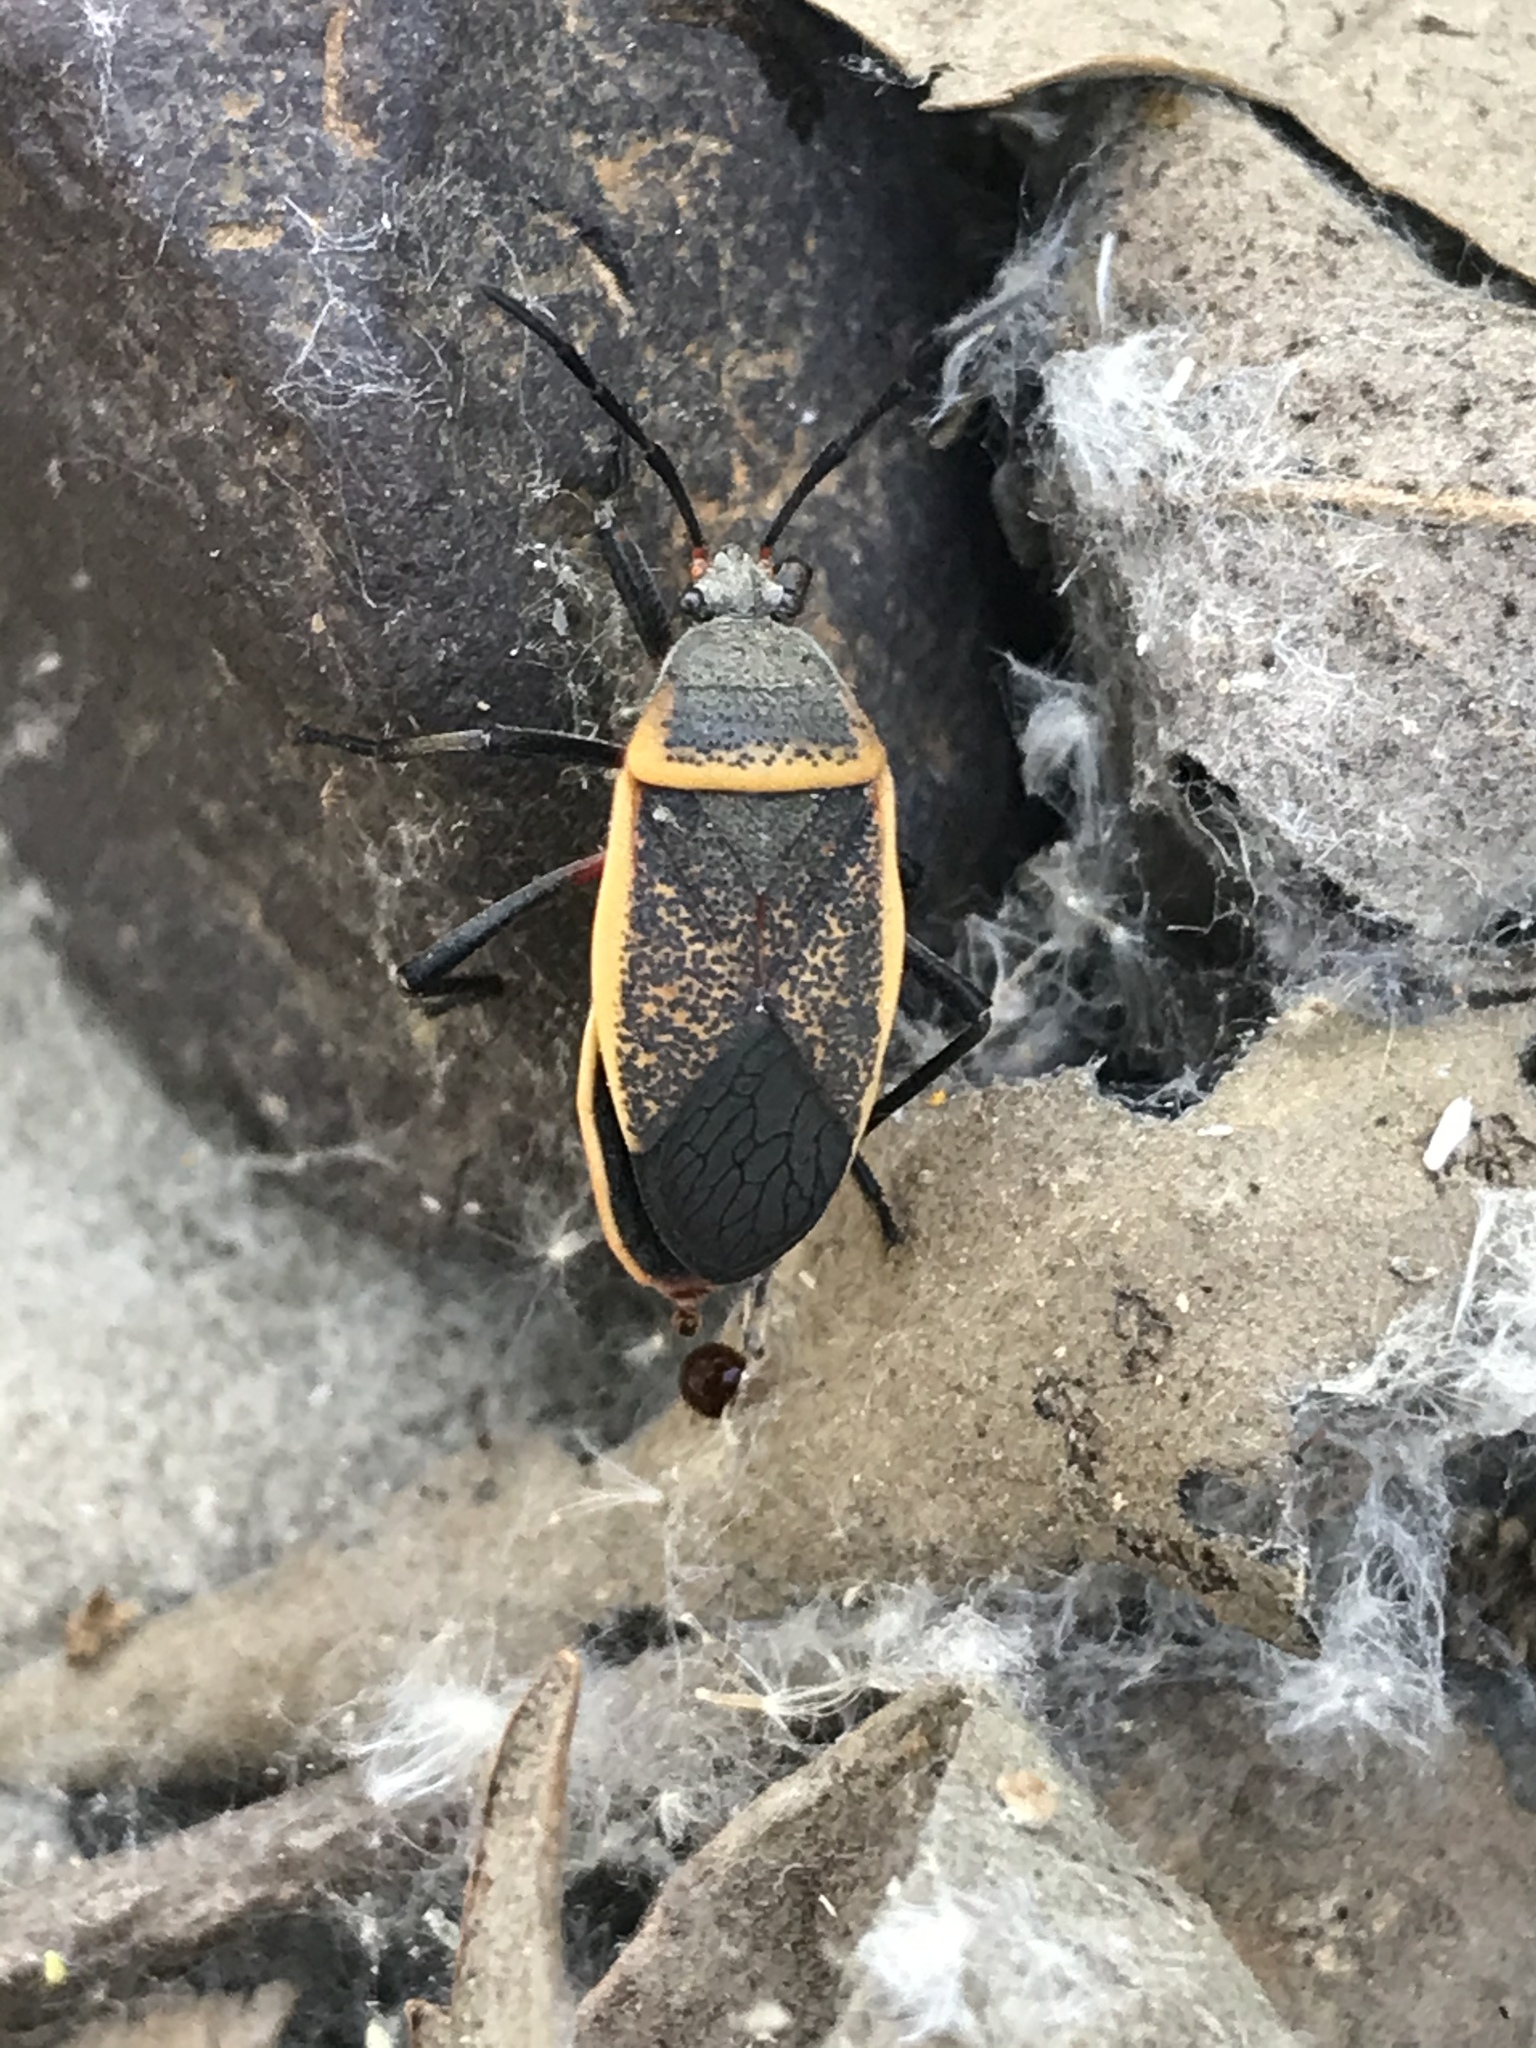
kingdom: Animalia
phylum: Arthropoda
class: Insecta
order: Hemiptera
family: Largidae
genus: Largus
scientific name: Largus californicus
